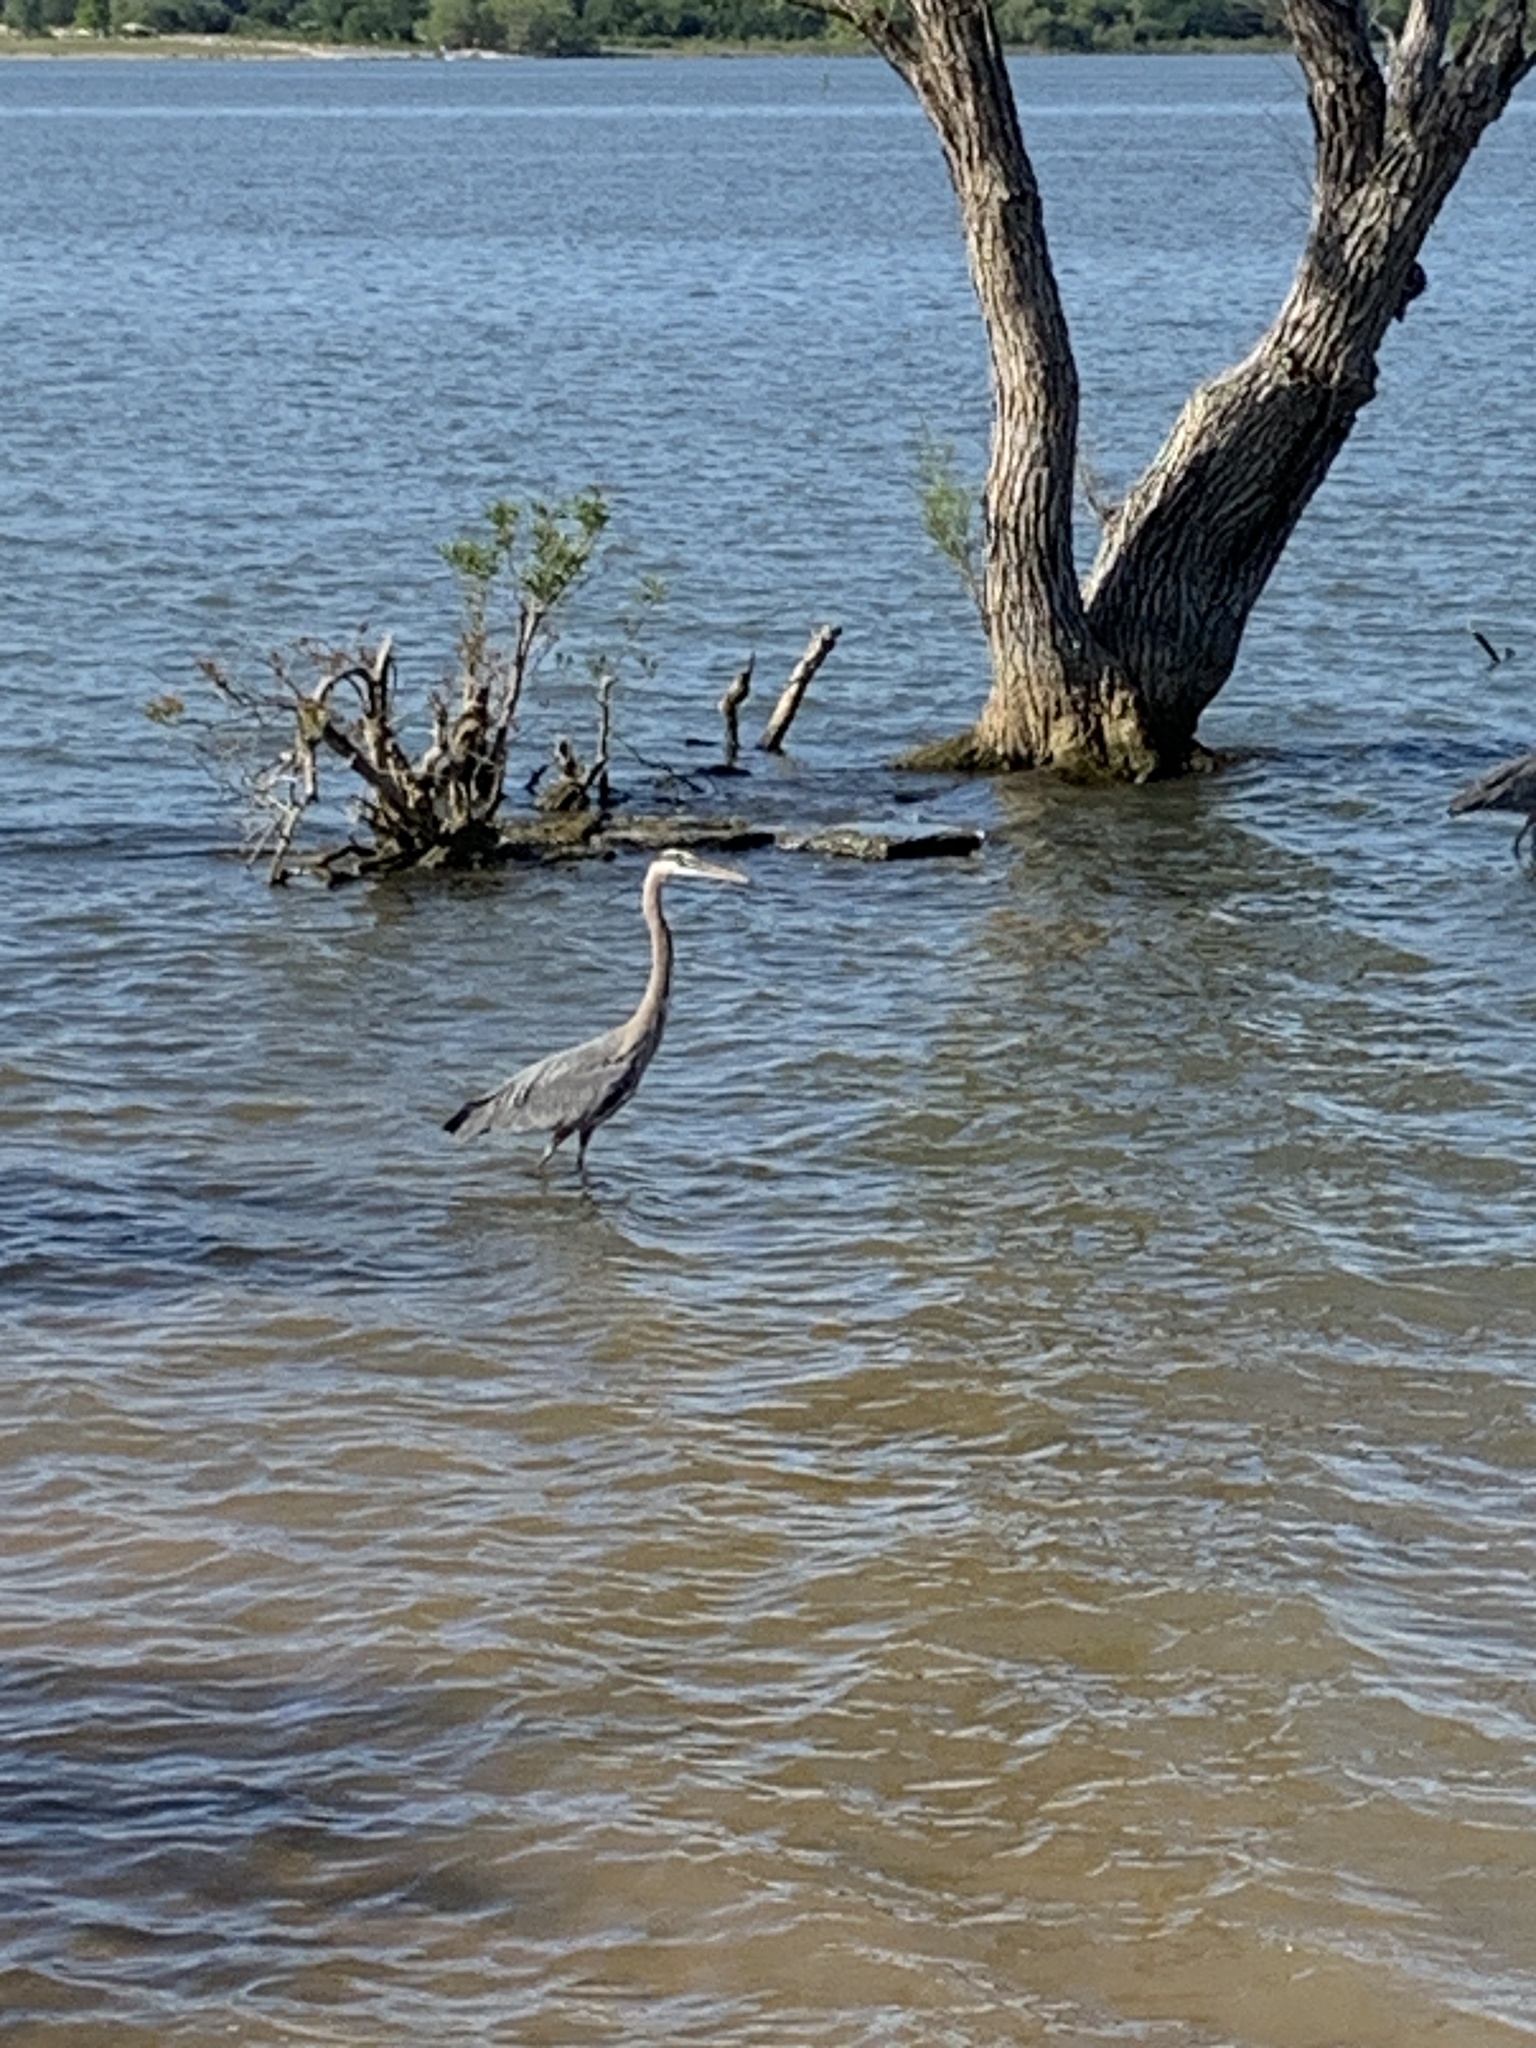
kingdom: Animalia
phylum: Chordata
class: Aves
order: Pelecaniformes
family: Ardeidae
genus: Ardea
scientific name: Ardea herodias
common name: Great blue heron
